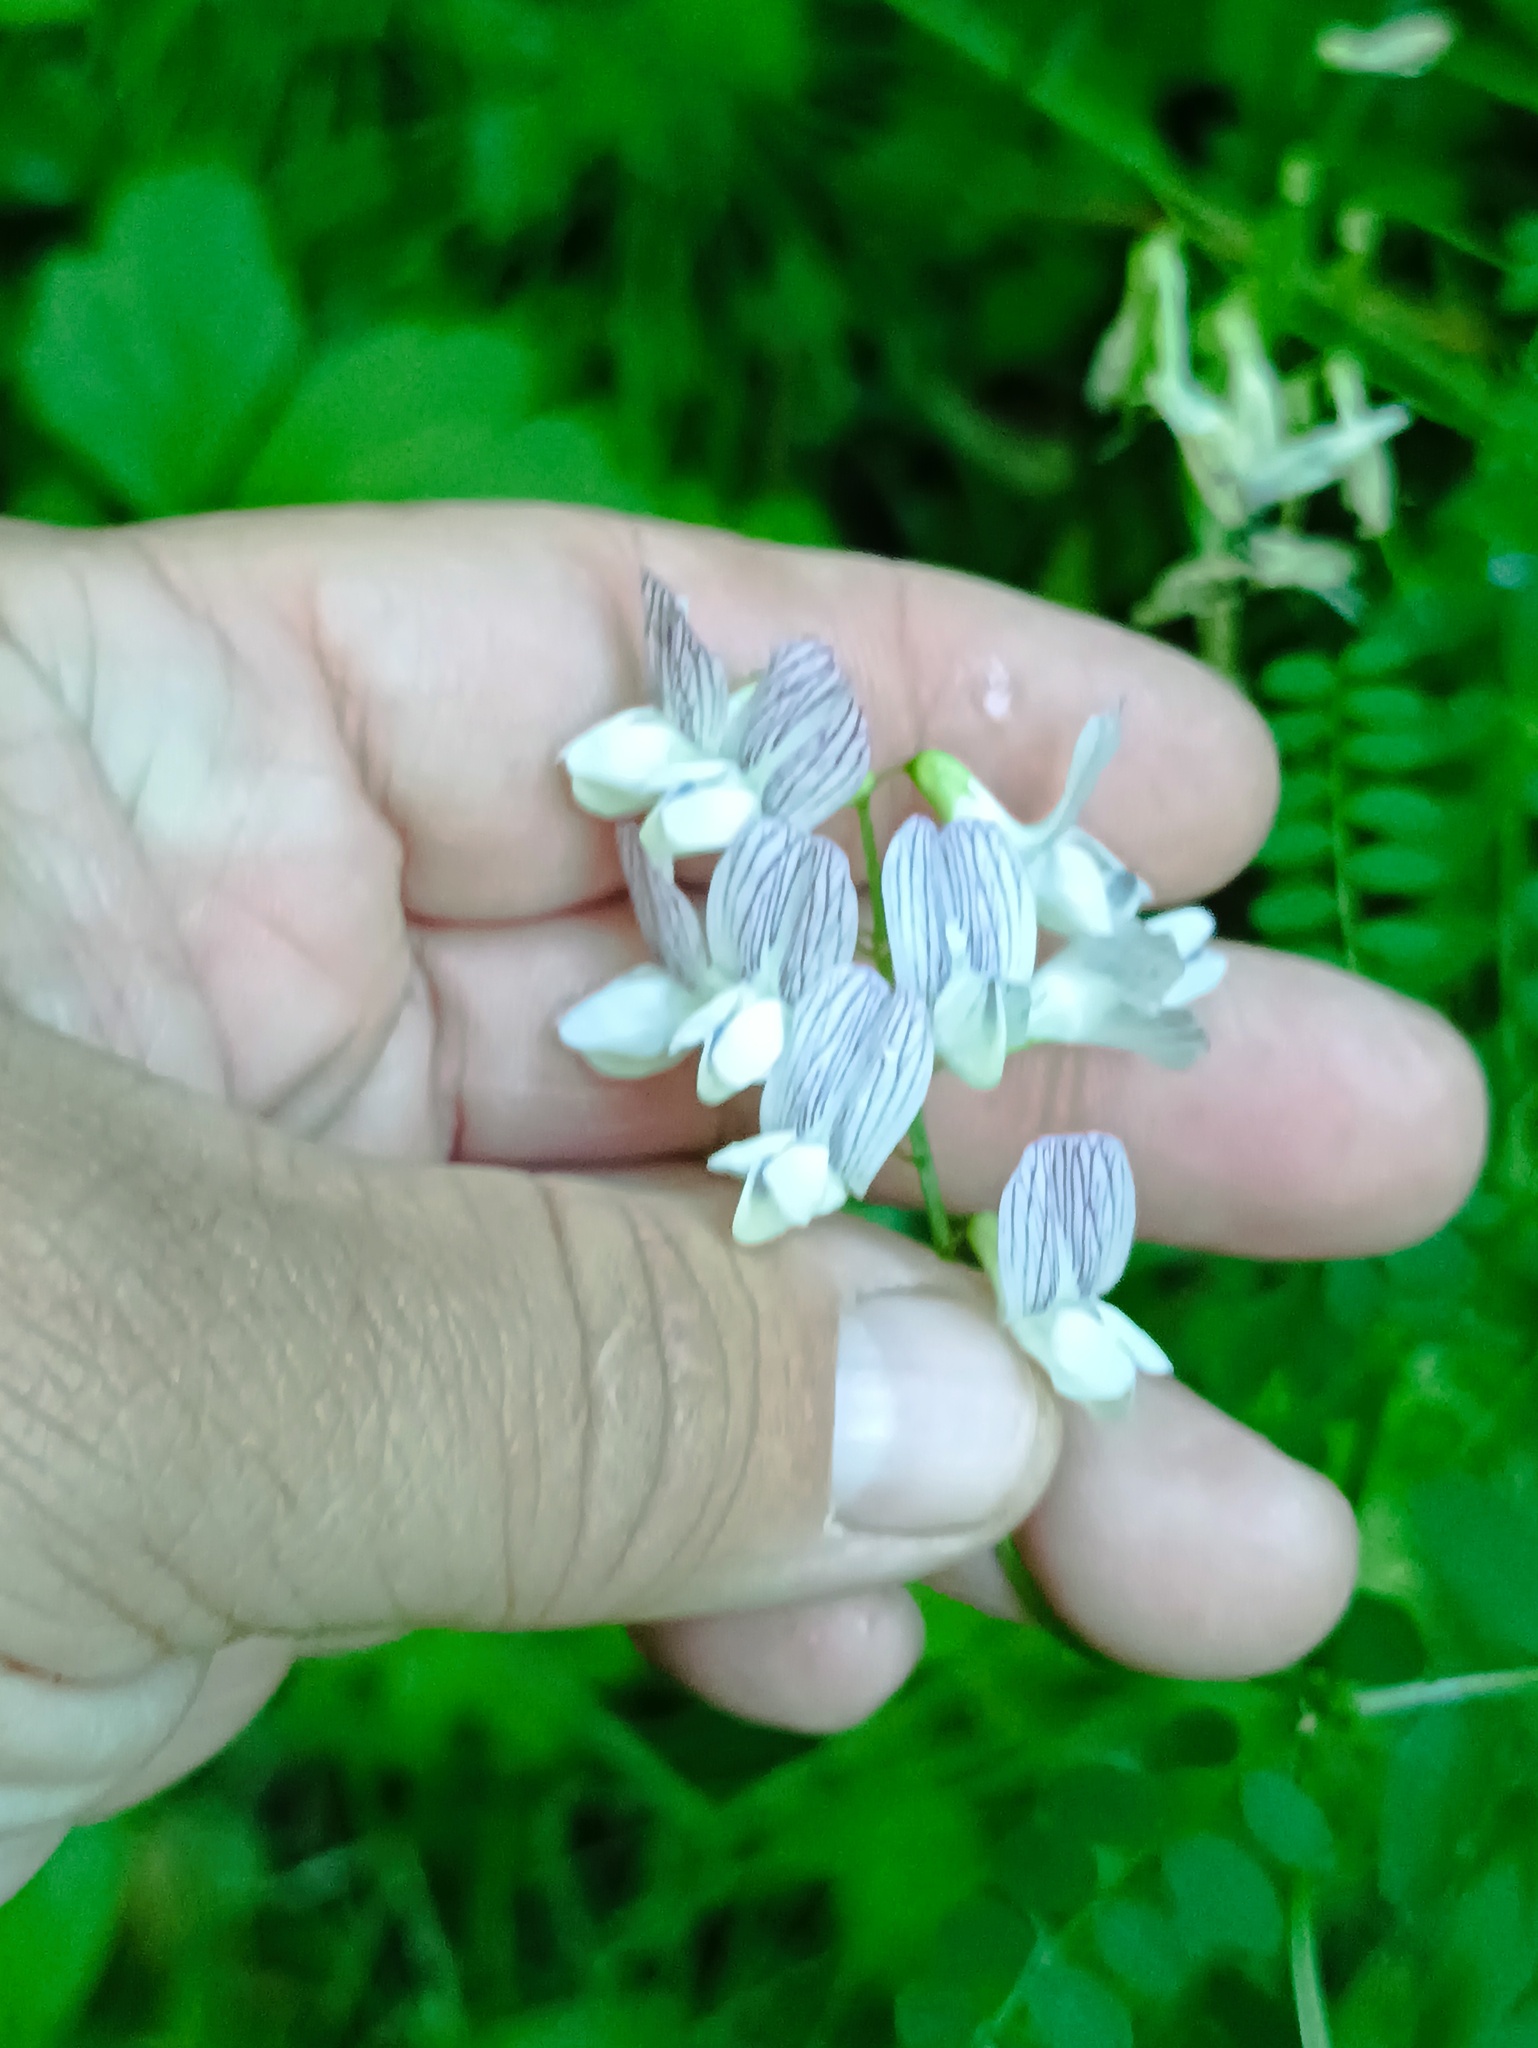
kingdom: Plantae
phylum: Tracheophyta
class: Magnoliopsida
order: Fabales
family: Fabaceae
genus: Vicia
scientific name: Vicia sylvatica
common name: Wood vetch
